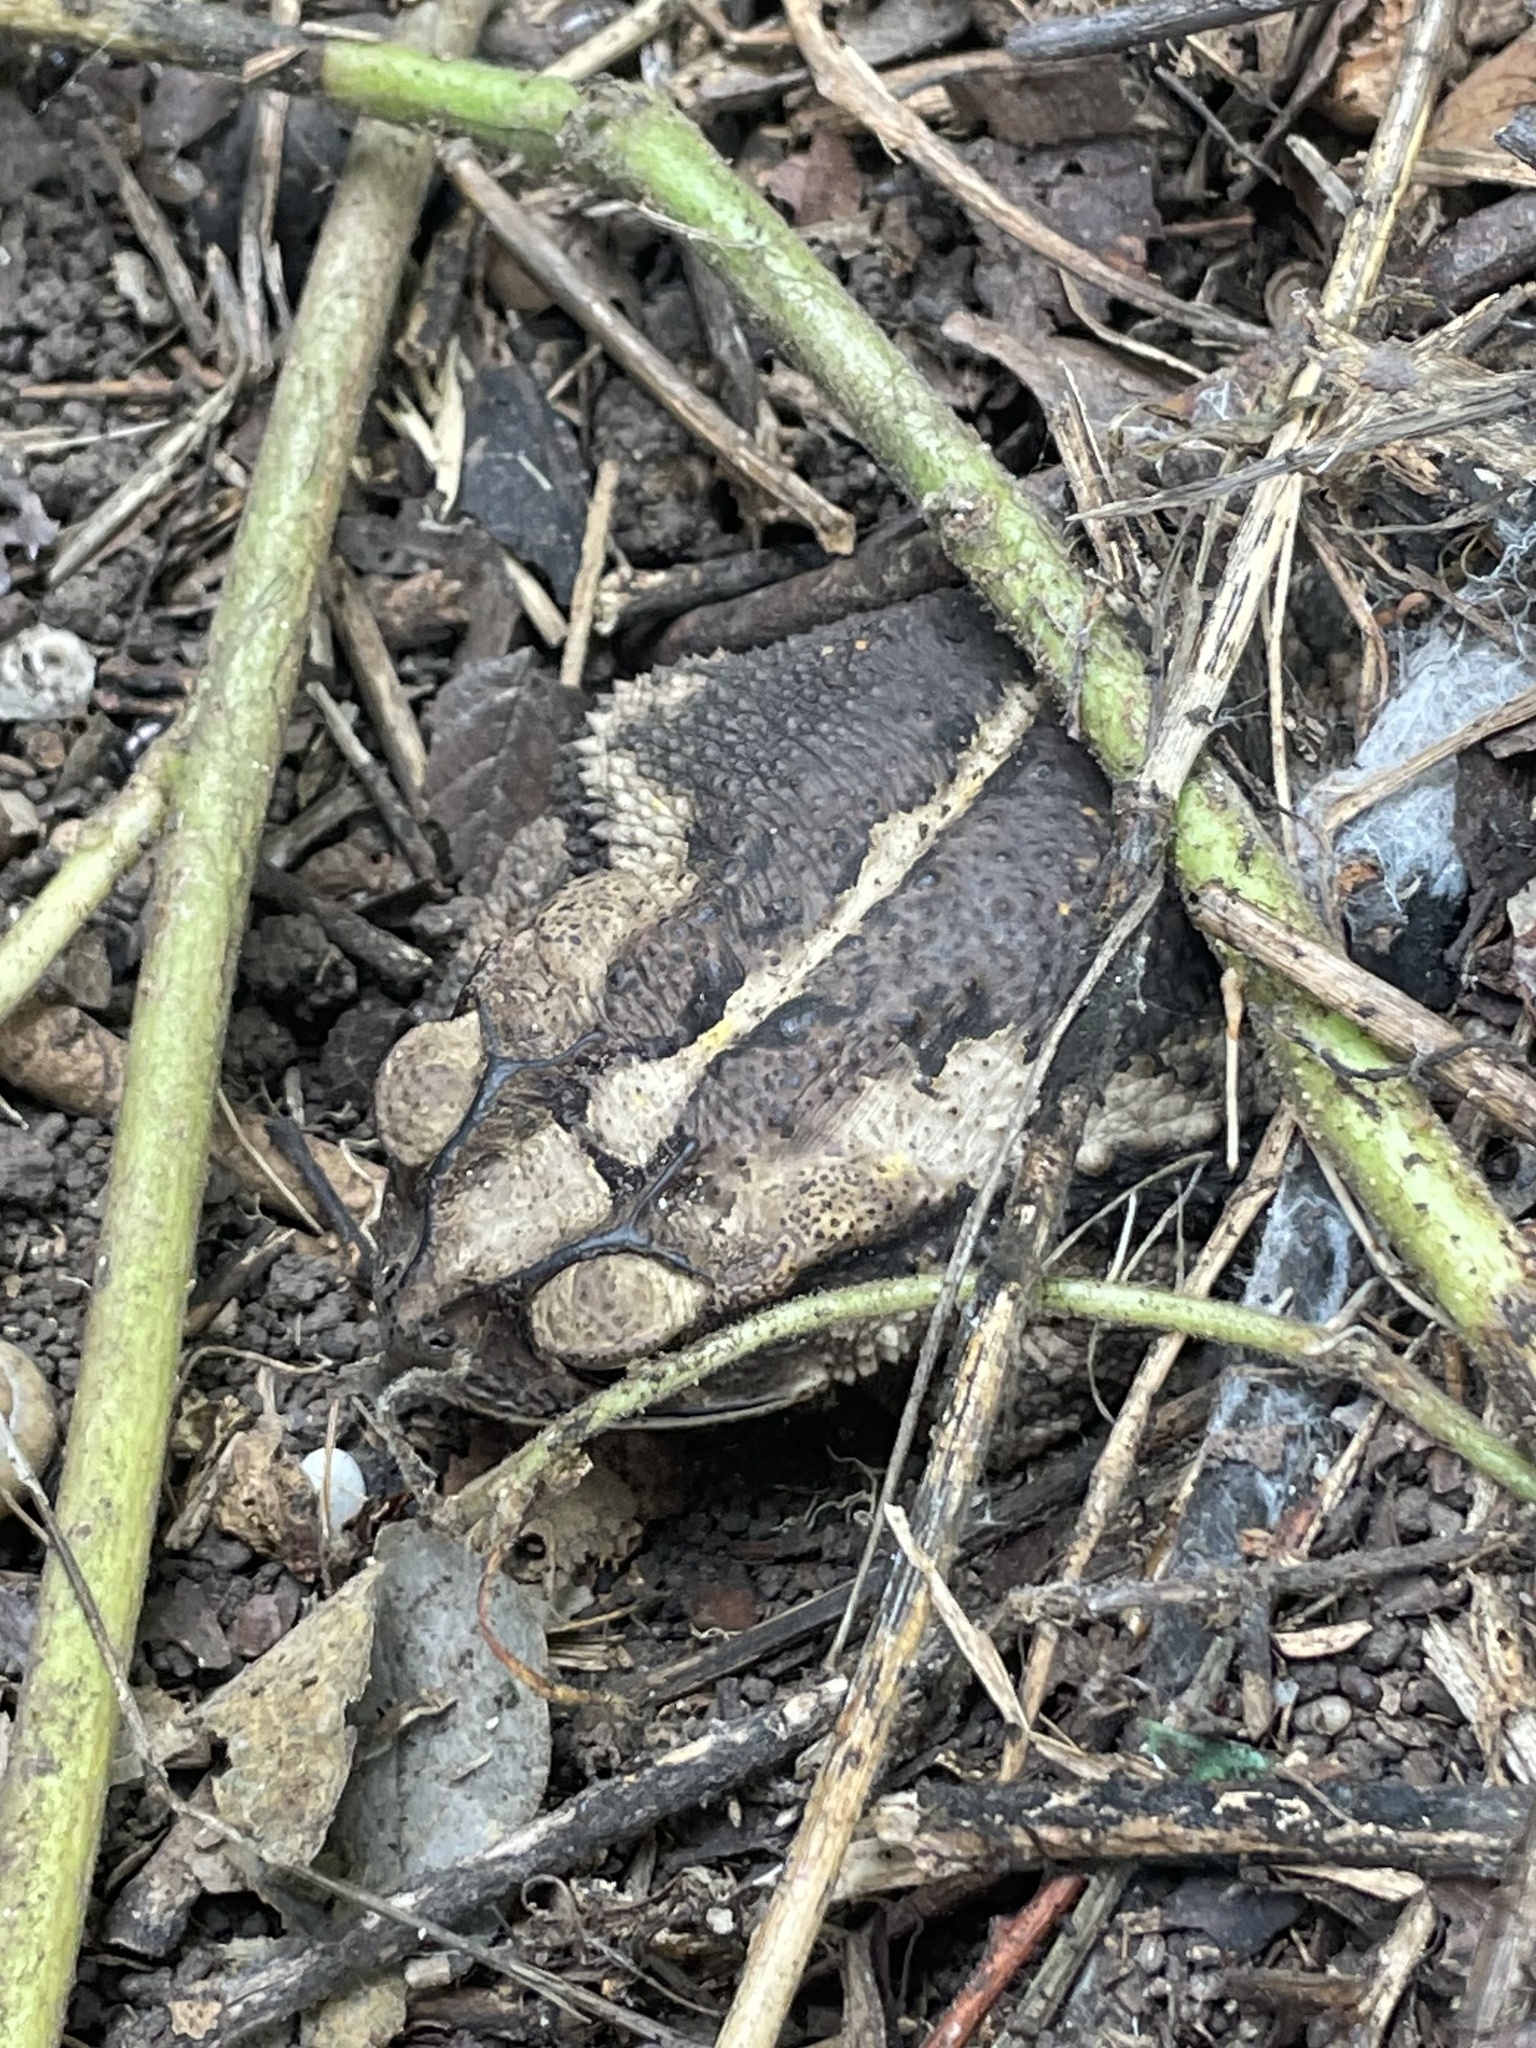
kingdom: Animalia
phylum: Chordata
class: Amphibia
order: Anura
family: Bufonidae
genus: Incilius
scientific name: Incilius nebulifer
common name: Gulf coast toad
